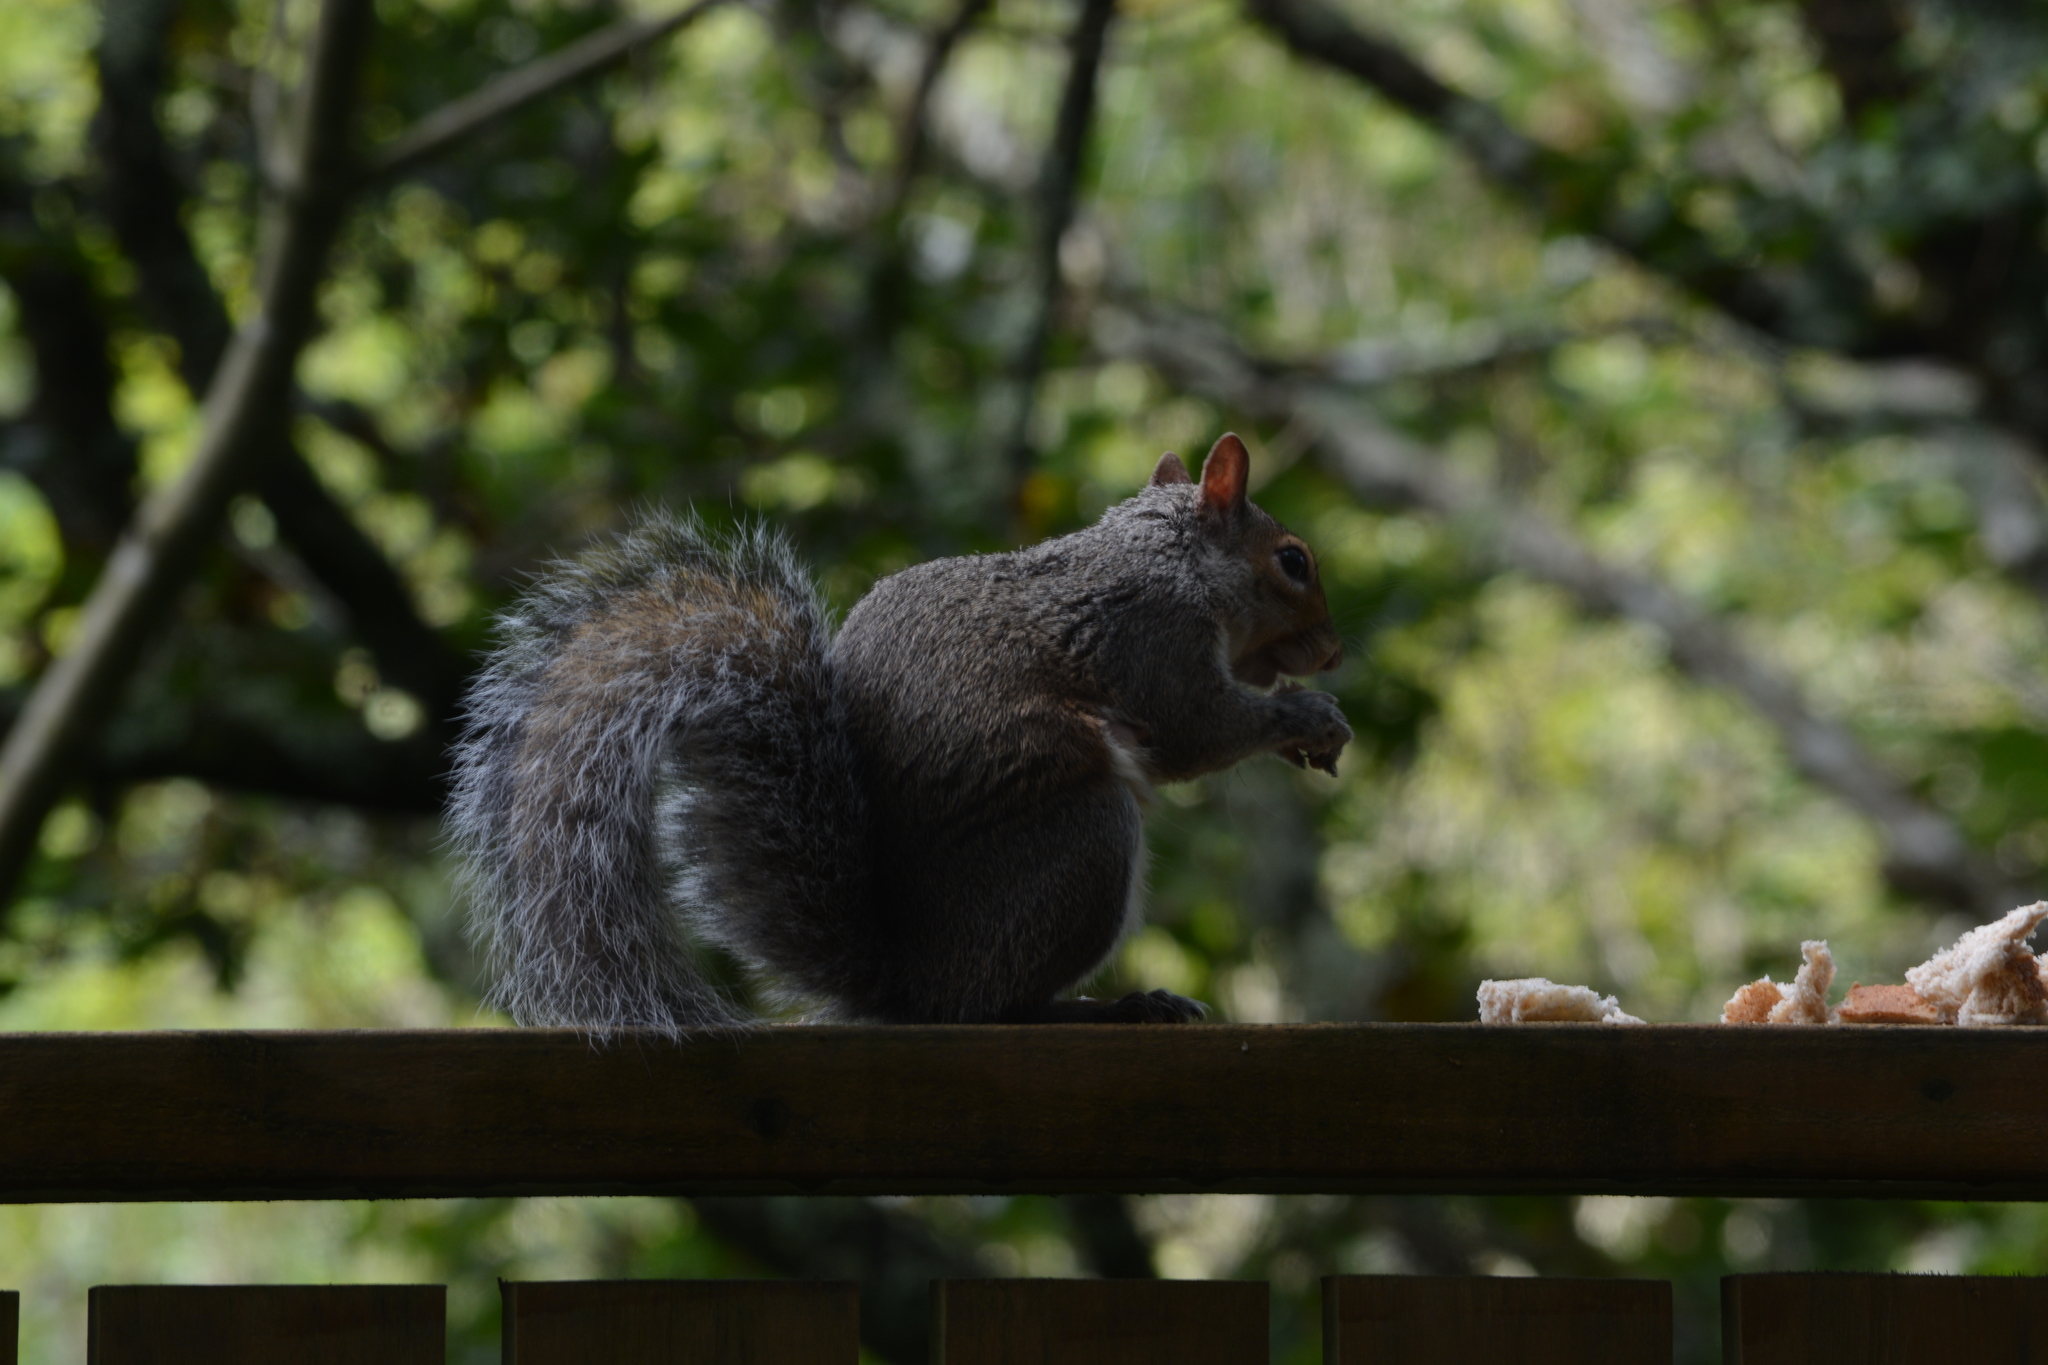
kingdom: Animalia
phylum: Chordata
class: Mammalia
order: Rodentia
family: Sciuridae
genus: Sciurus
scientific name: Sciurus carolinensis
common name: Eastern gray squirrel
